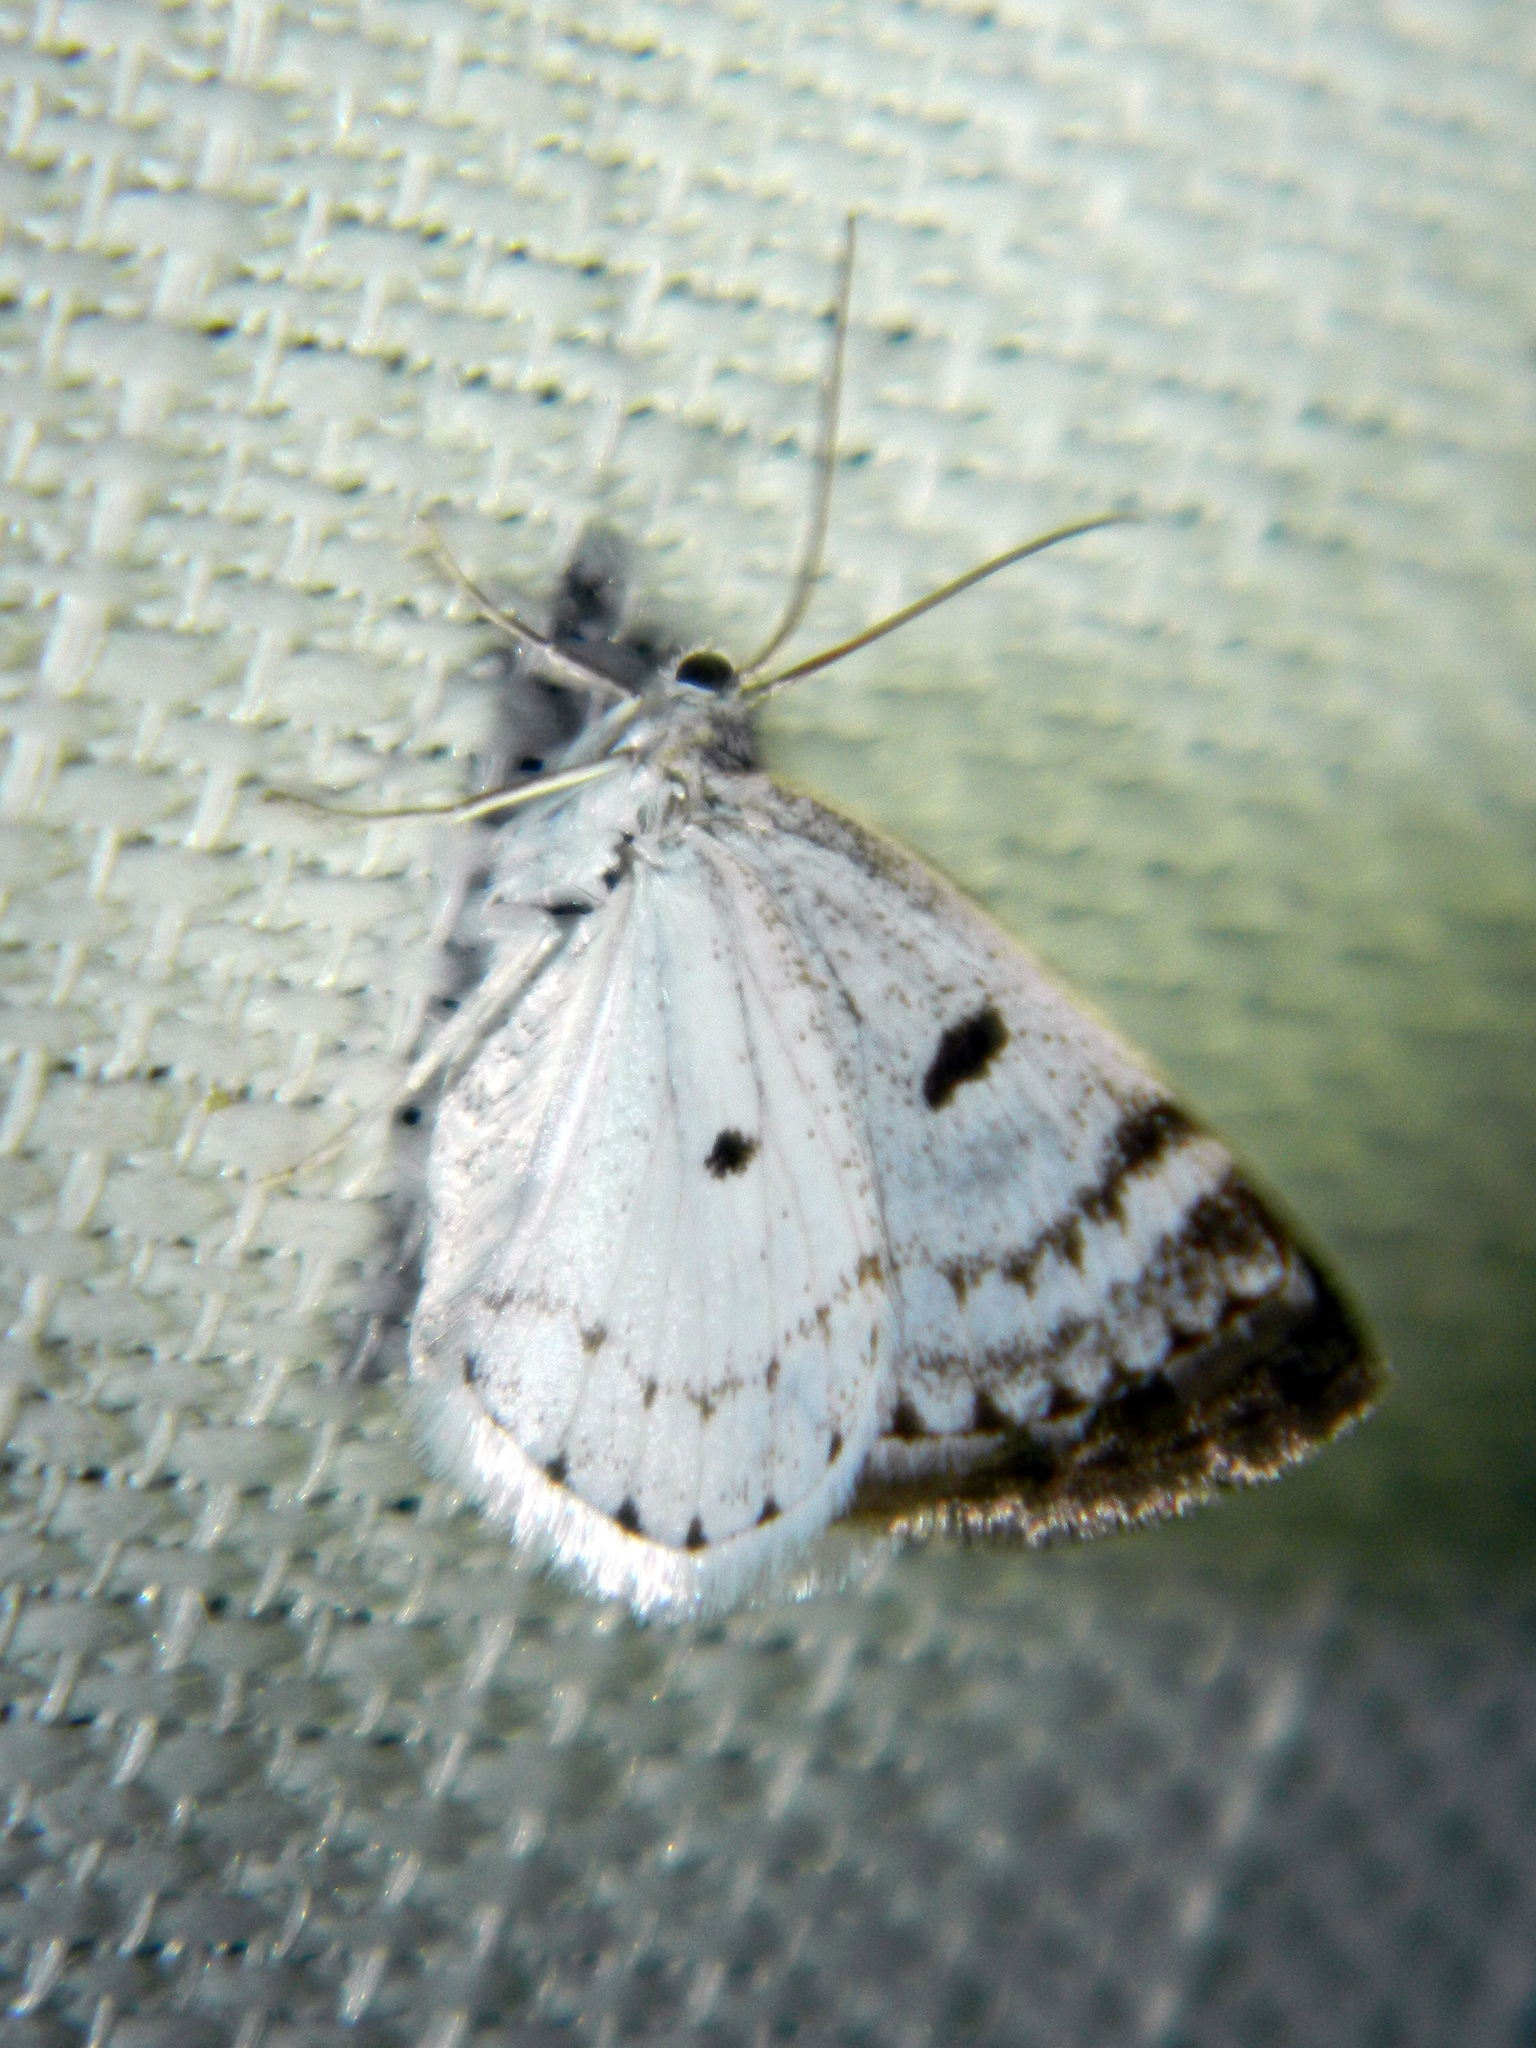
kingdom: Animalia
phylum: Arthropoda
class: Insecta
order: Lepidoptera
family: Geometridae
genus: Lomographa
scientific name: Lomographa semiclarata
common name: Bluish spring moth
